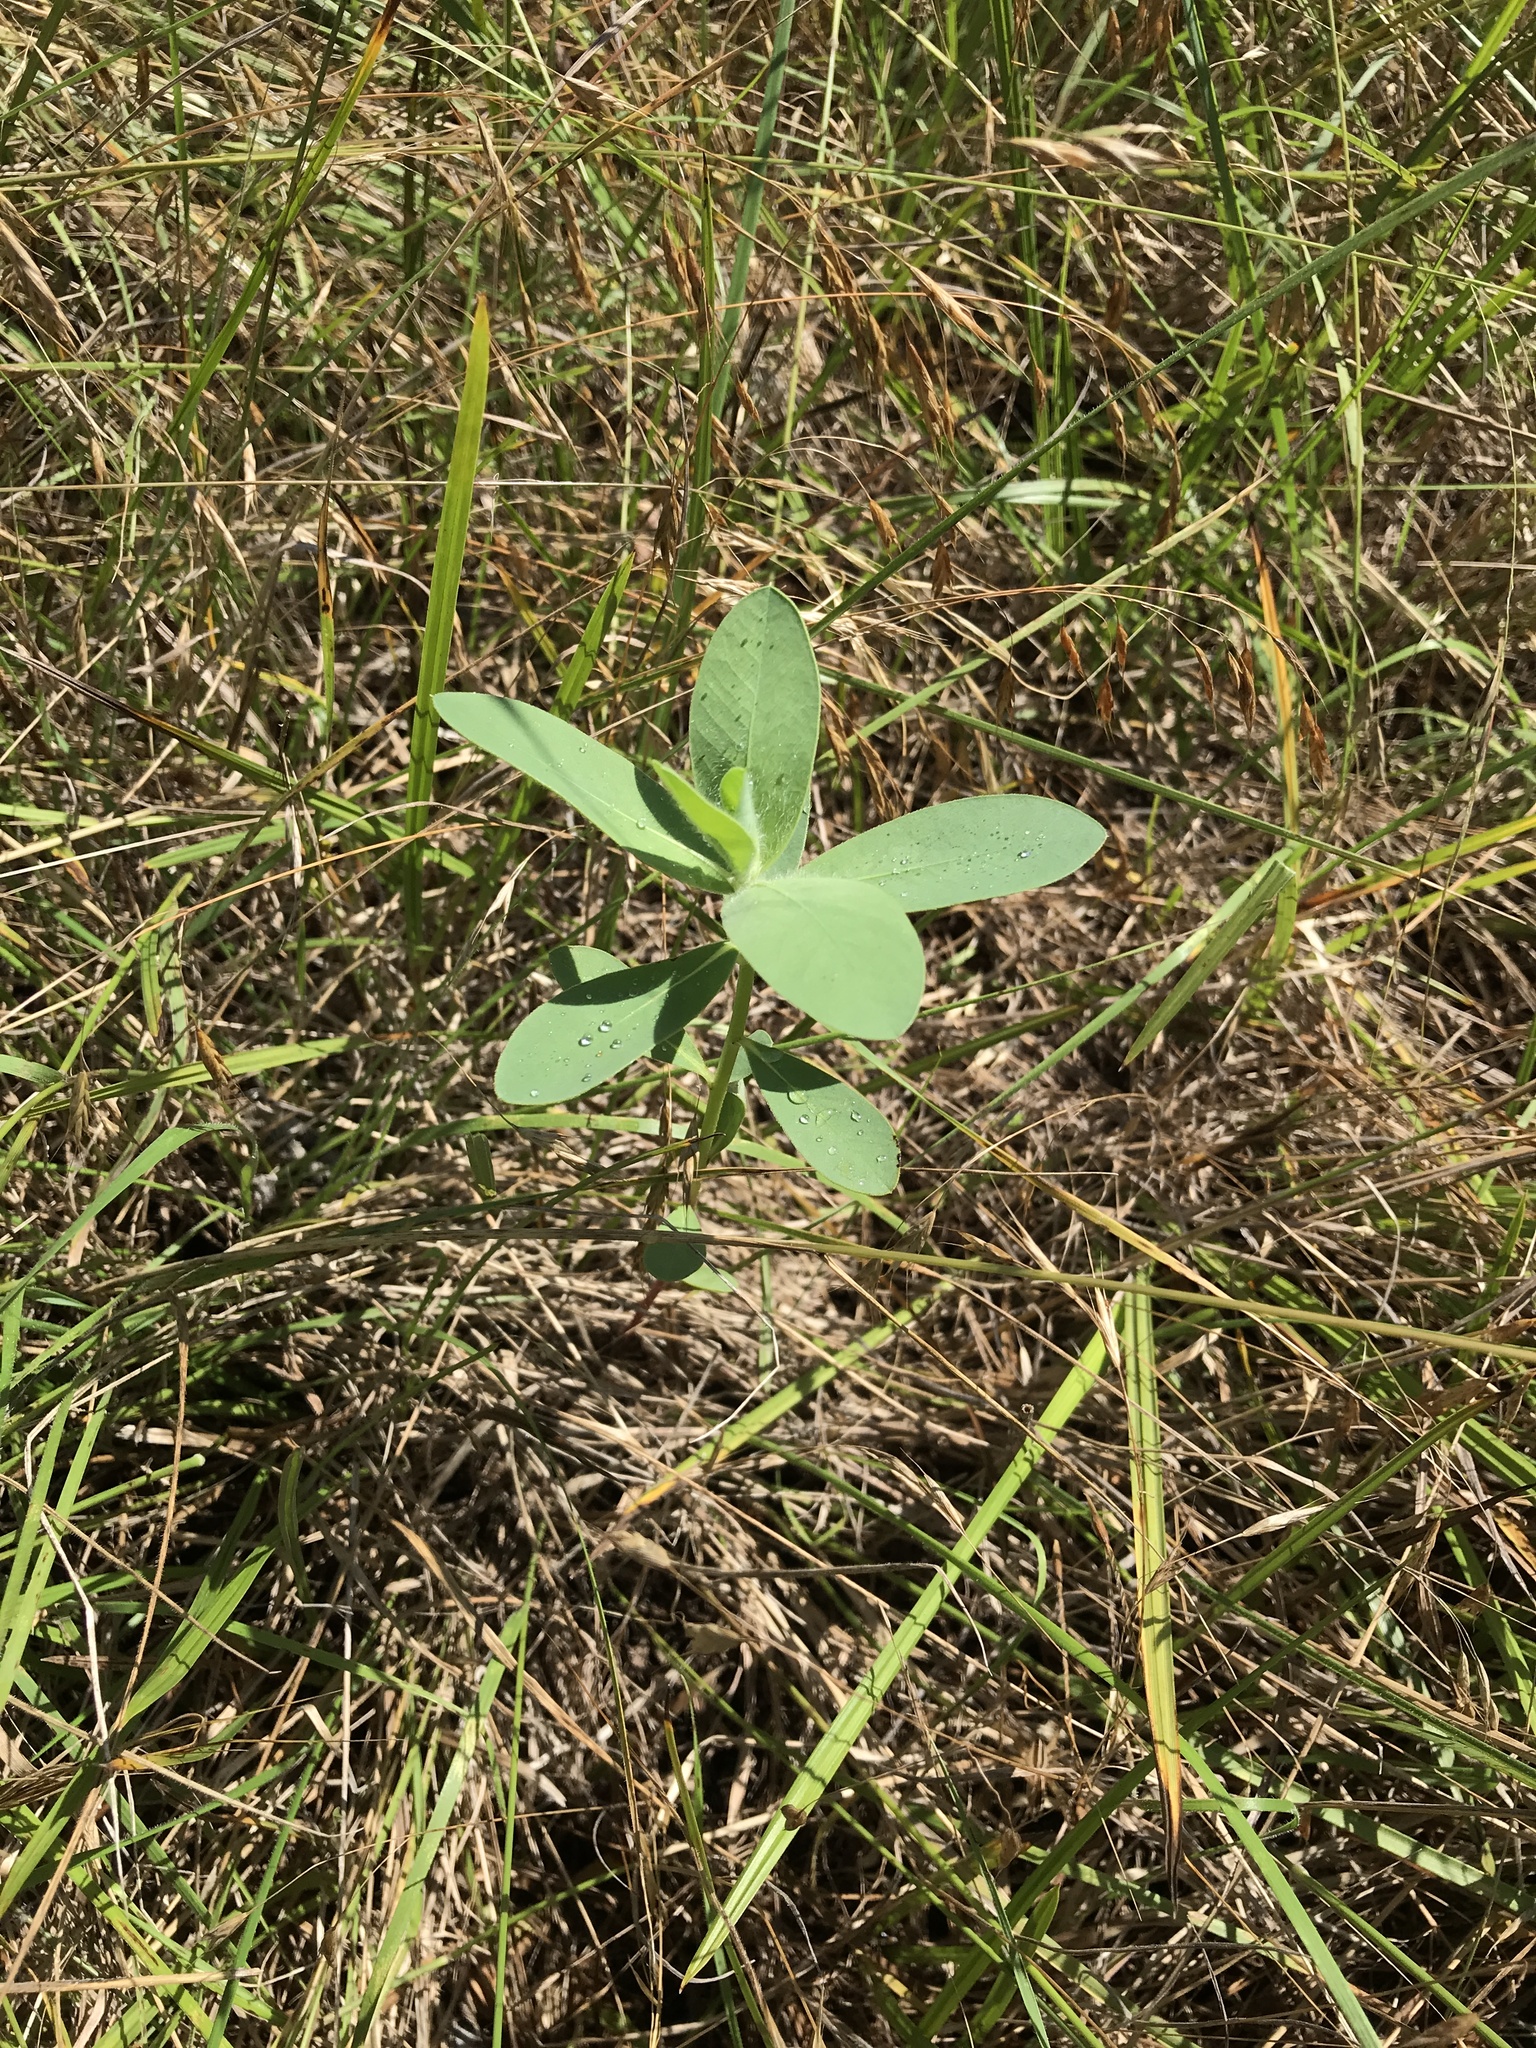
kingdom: Plantae
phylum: Tracheophyta
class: Magnoliopsida
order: Malpighiales
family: Euphorbiaceae
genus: Euphorbia
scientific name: Euphorbia bicolor
